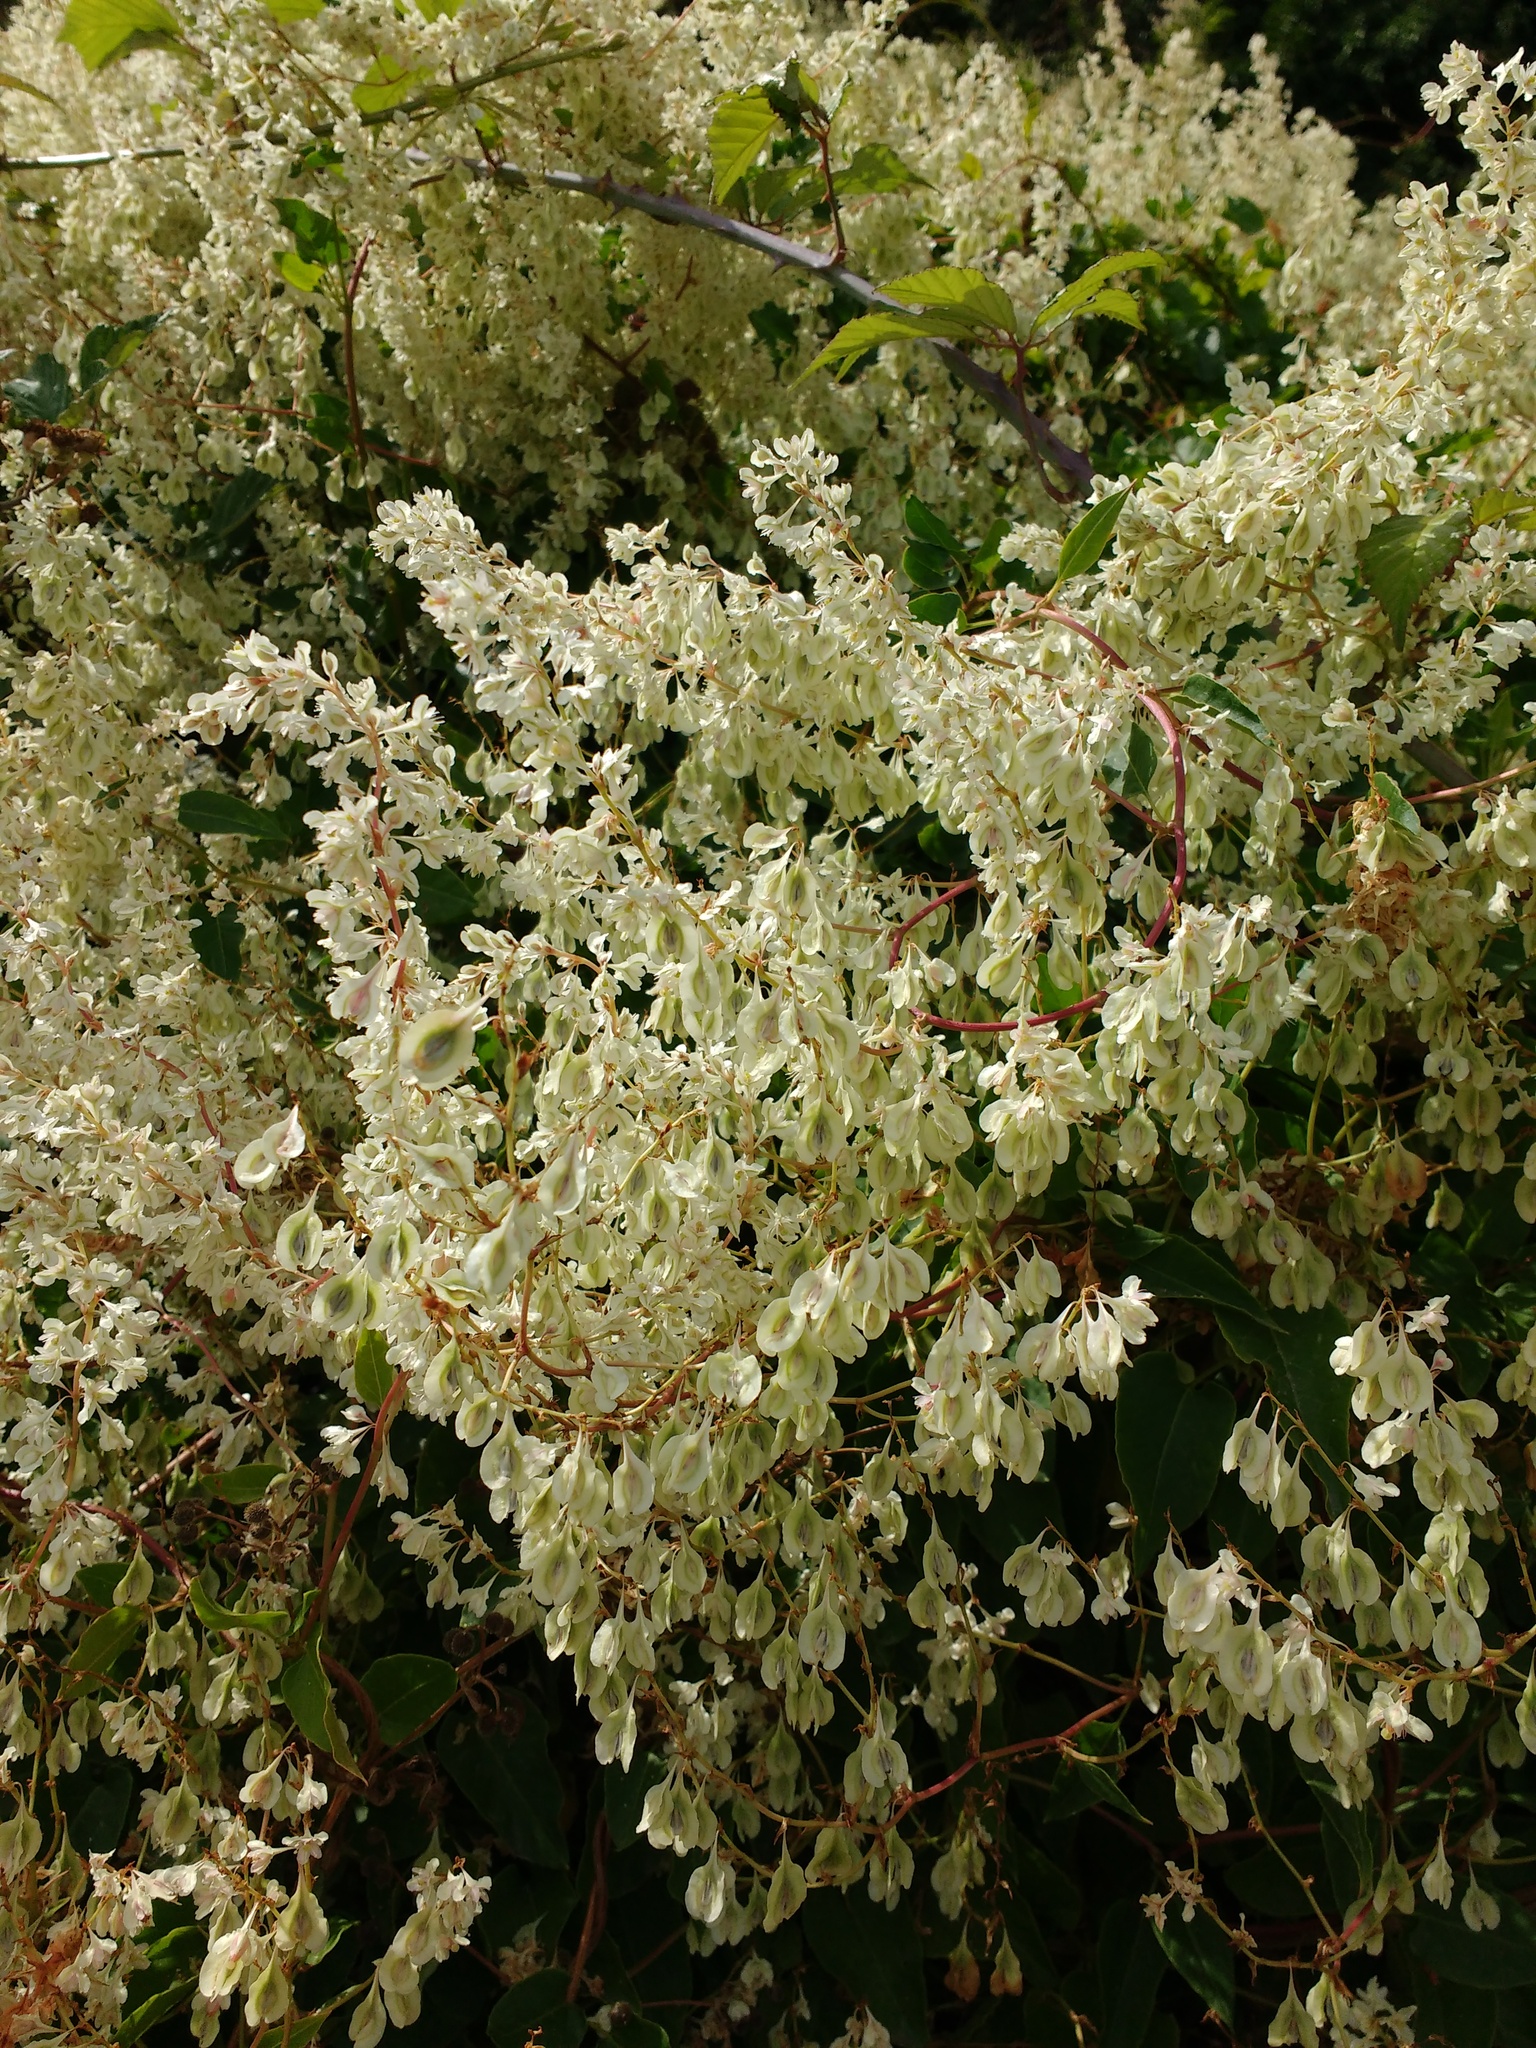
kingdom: Plantae
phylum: Tracheophyta
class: Magnoliopsida
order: Caryophyllales
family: Polygonaceae
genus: Fallopia
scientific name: Fallopia baldschuanica
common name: Russian-vine
